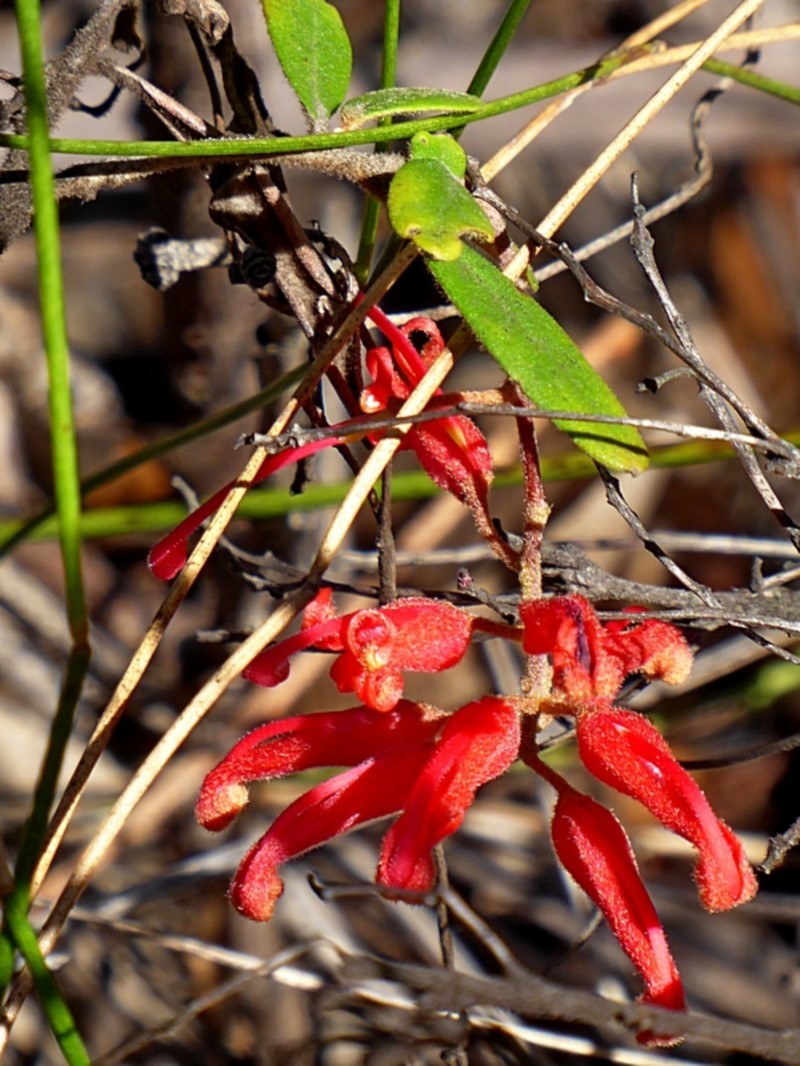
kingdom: Plantae
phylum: Tracheophyta
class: Magnoliopsida
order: Proteales
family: Proteaceae
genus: Grevillea
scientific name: Grevillea irrasa
